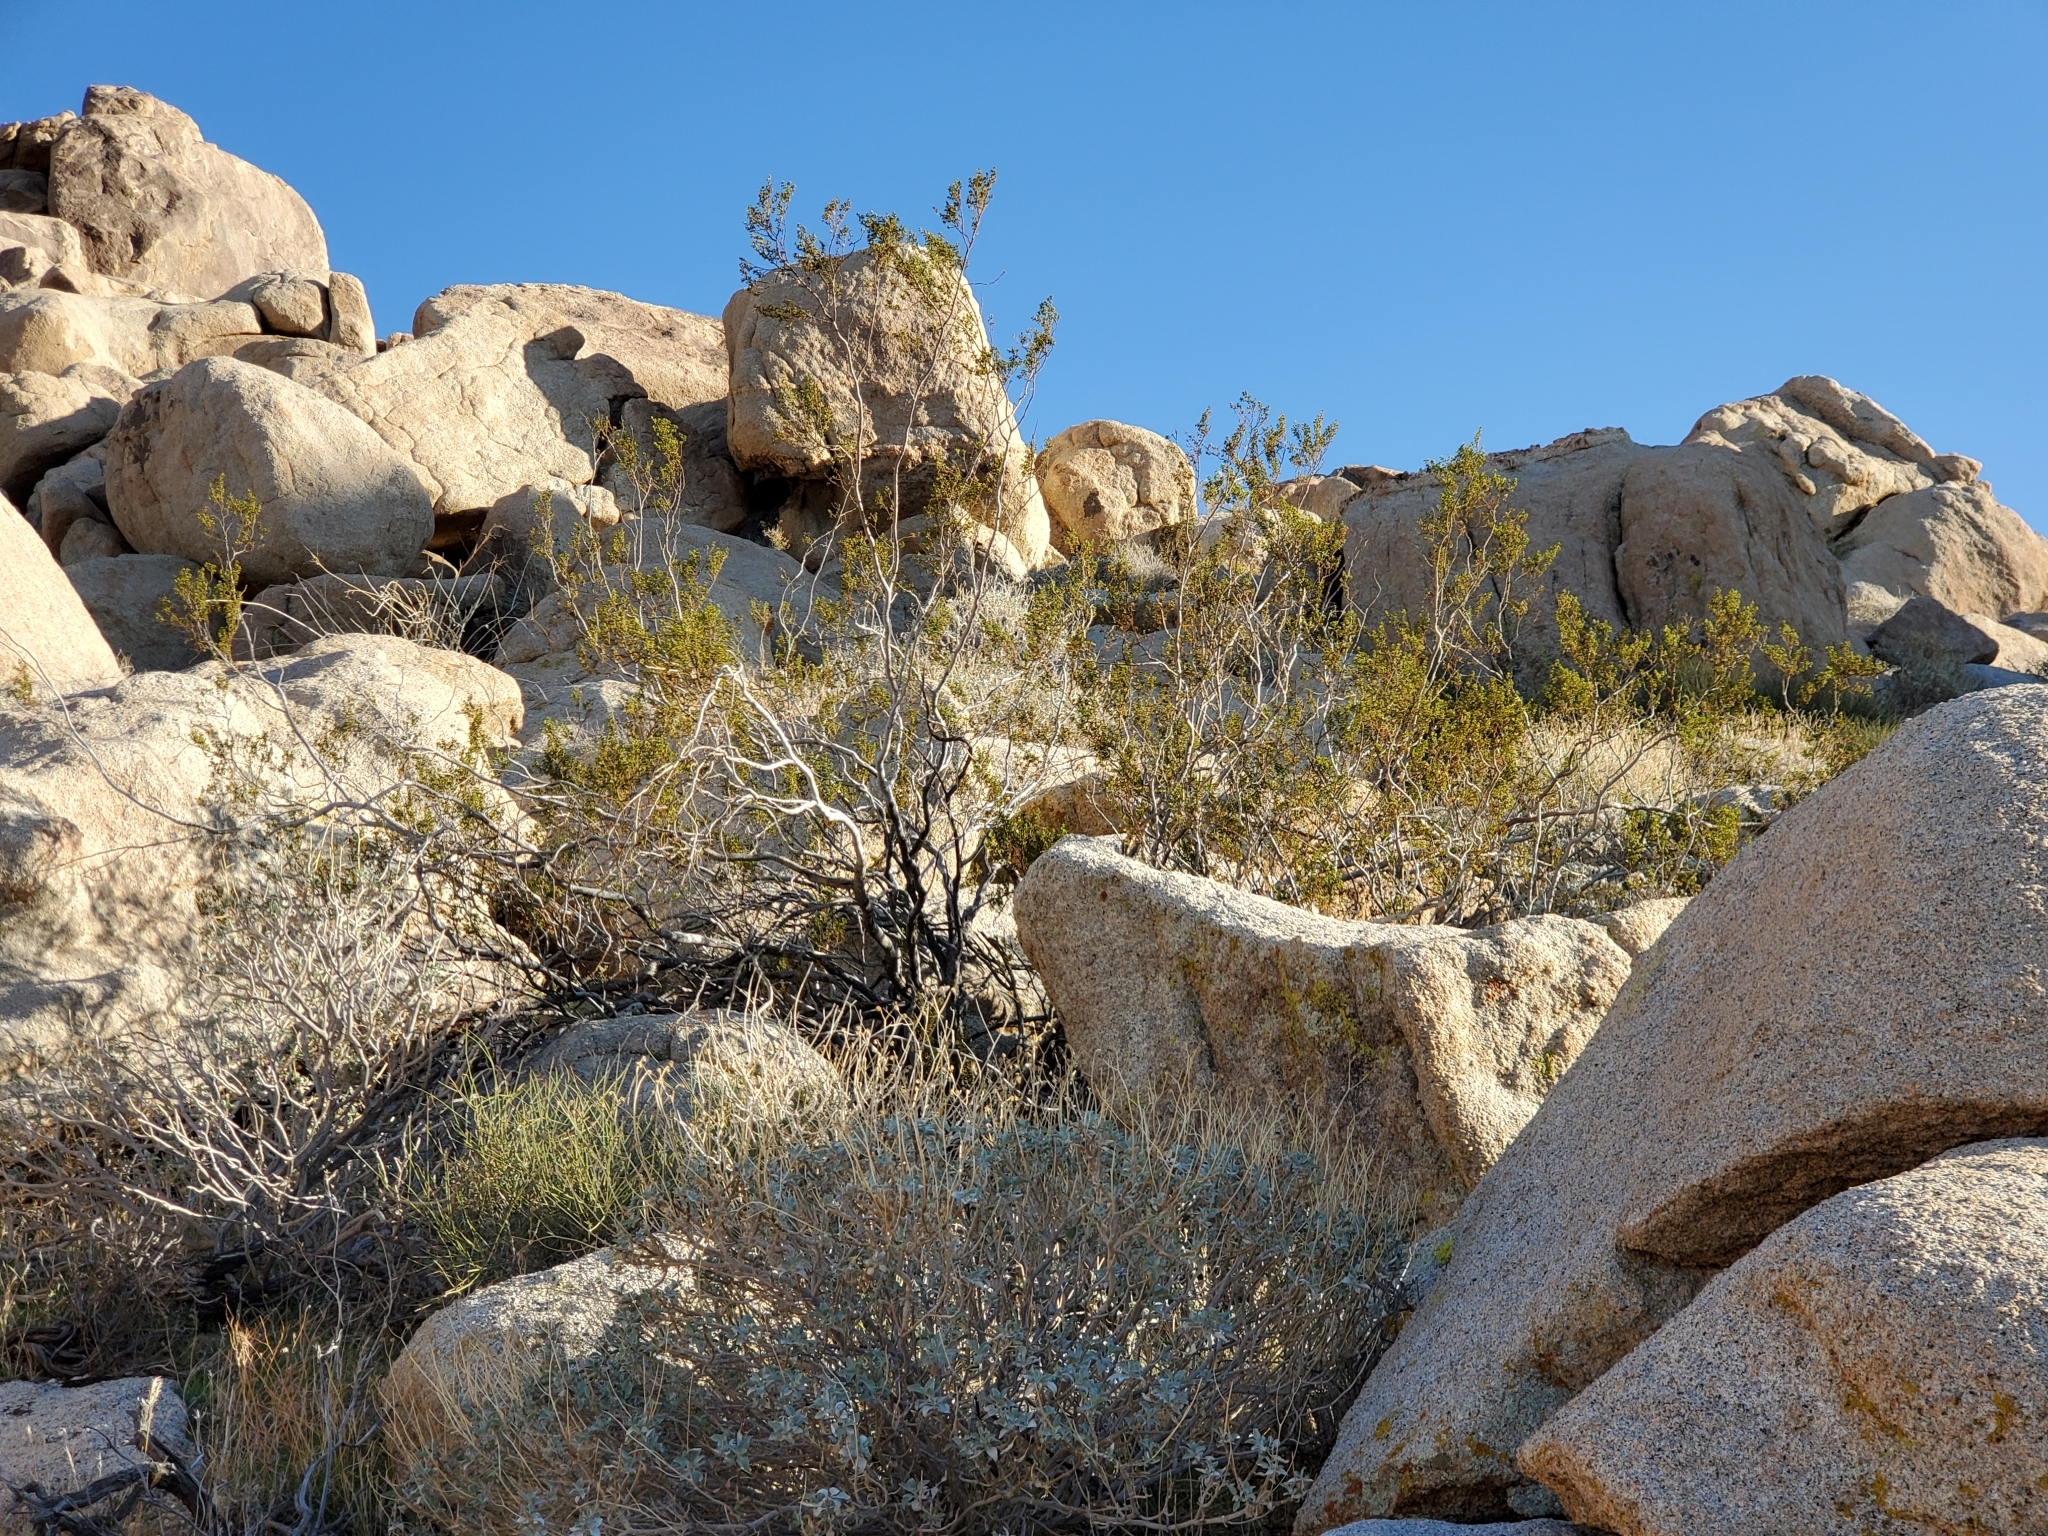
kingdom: Plantae
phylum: Tracheophyta
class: Magnoliopsida
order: Zygophyllales
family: Zygophyllaceae
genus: Larrea
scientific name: Larrea tridentata
